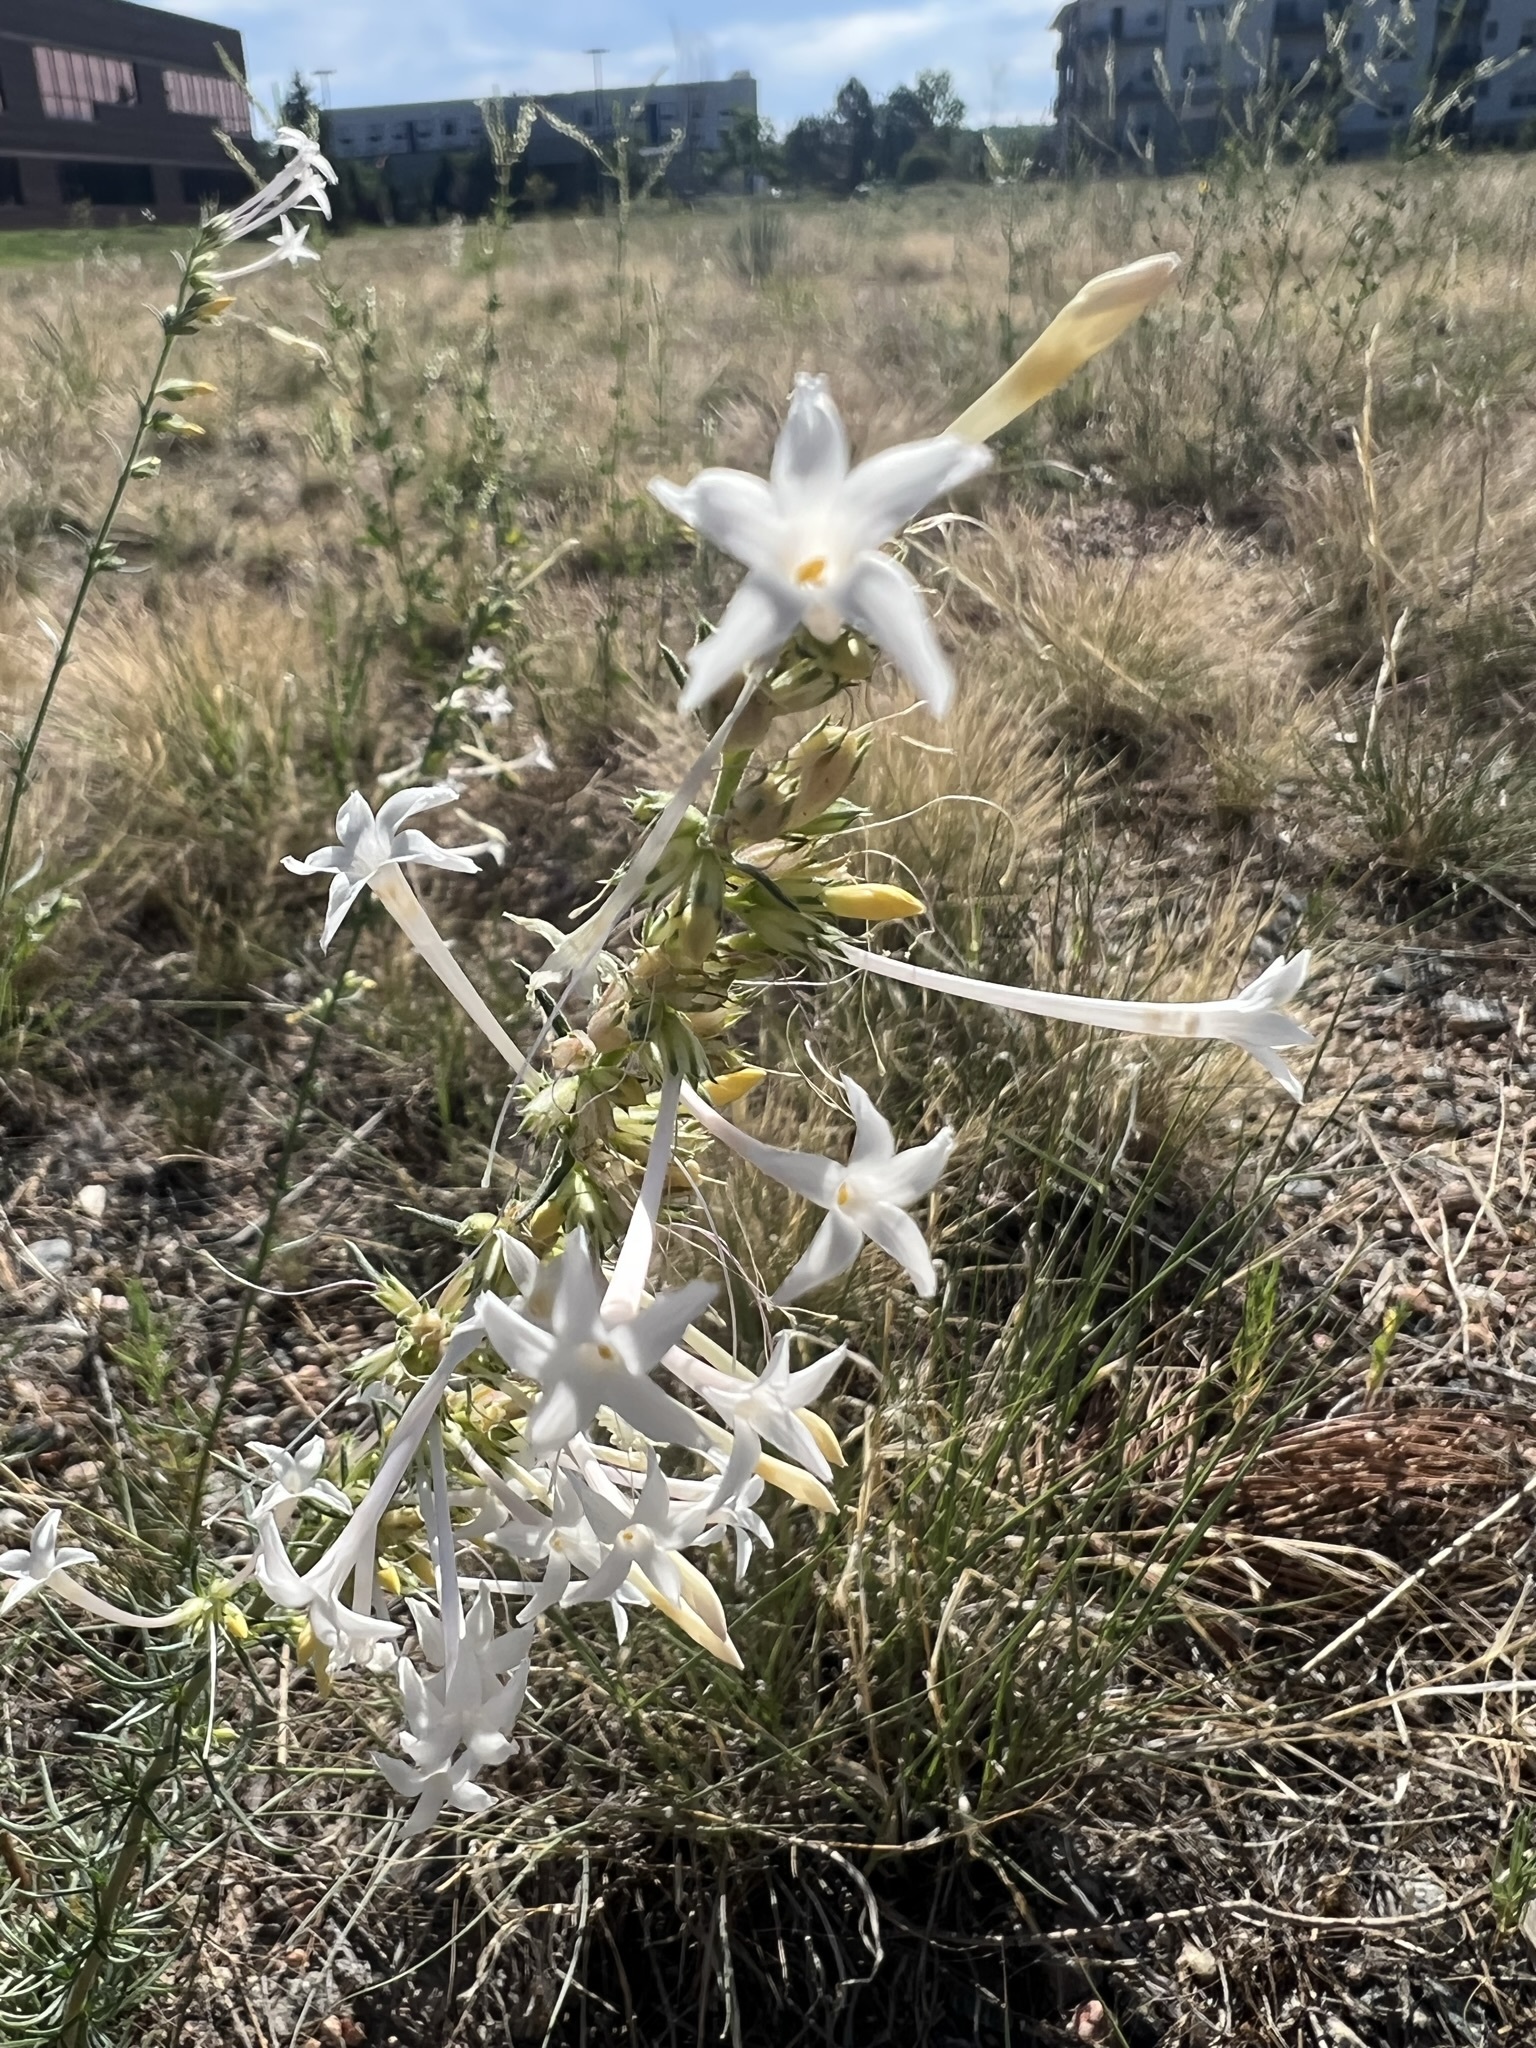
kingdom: Plantae
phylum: Tracheophyta
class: Magnoliopsida
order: Ericales
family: Polemoniaceae
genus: Ipomopsis
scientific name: Ipomopsis aggregata
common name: Scarlet gilia
